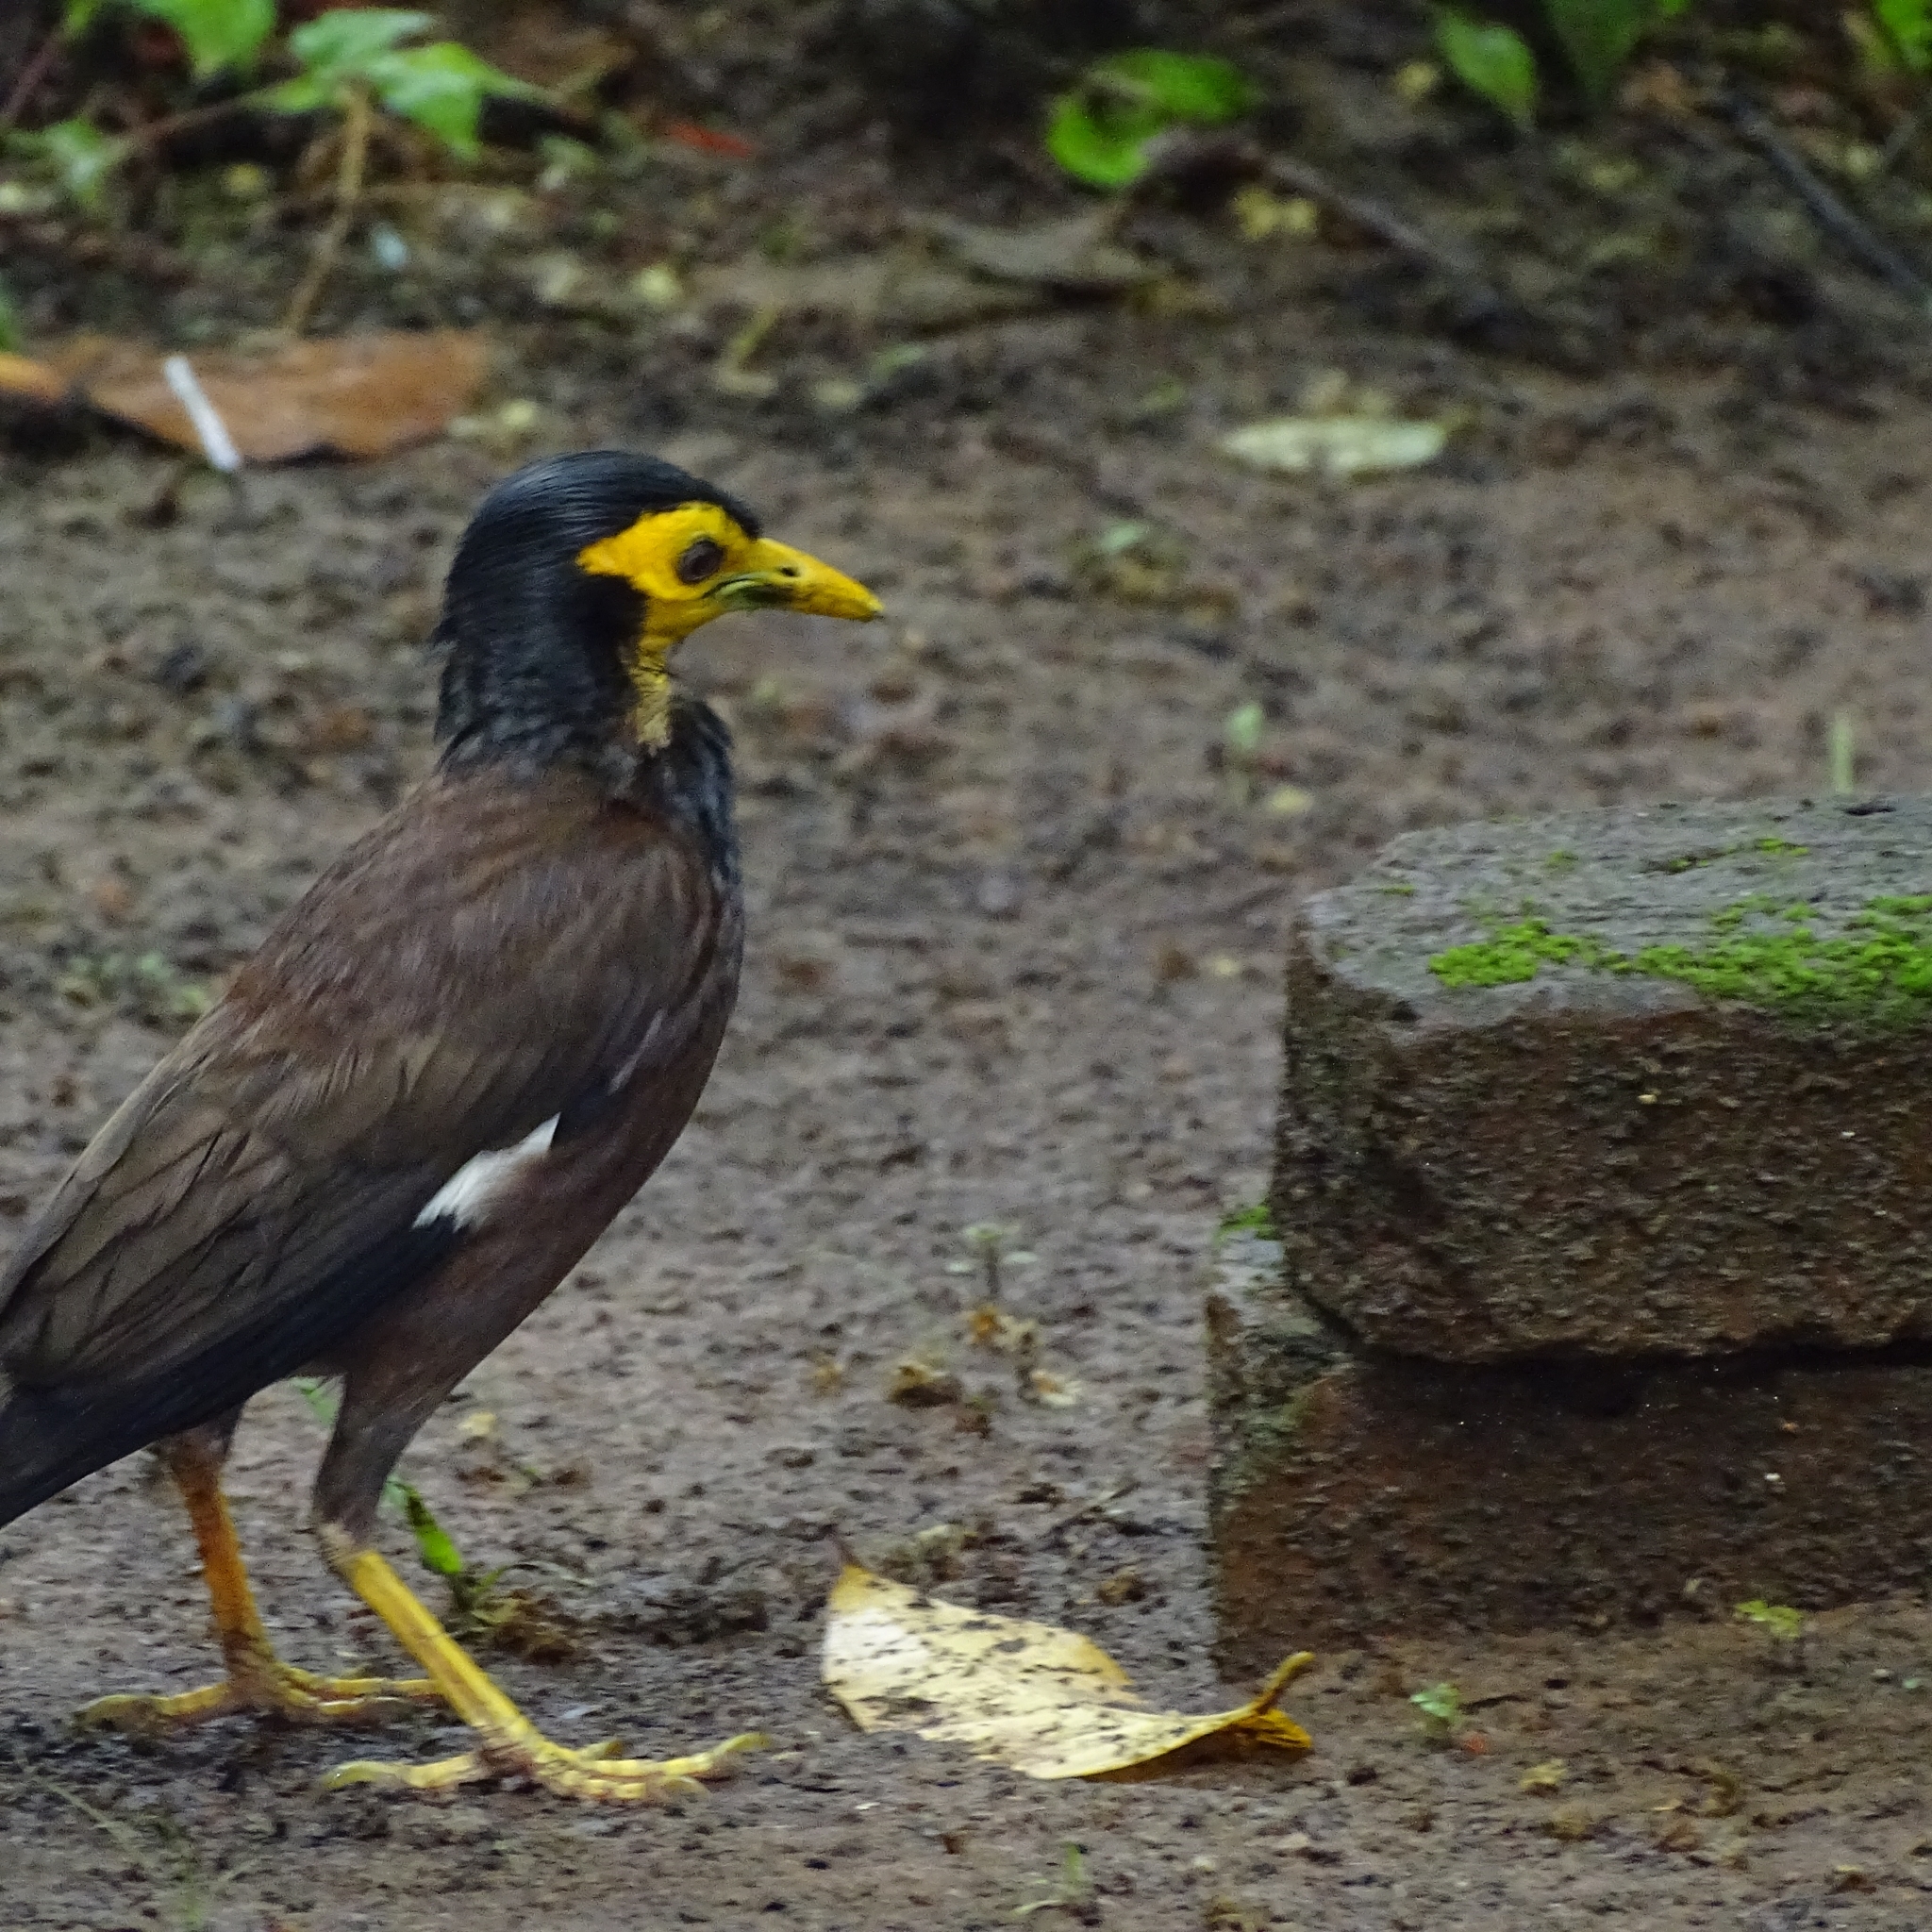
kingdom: Animalia
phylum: Chordata
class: Aves
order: Passeriformes
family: Sturnidae
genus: Acridotheres
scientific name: Acridotheres tristis
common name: Common myna
